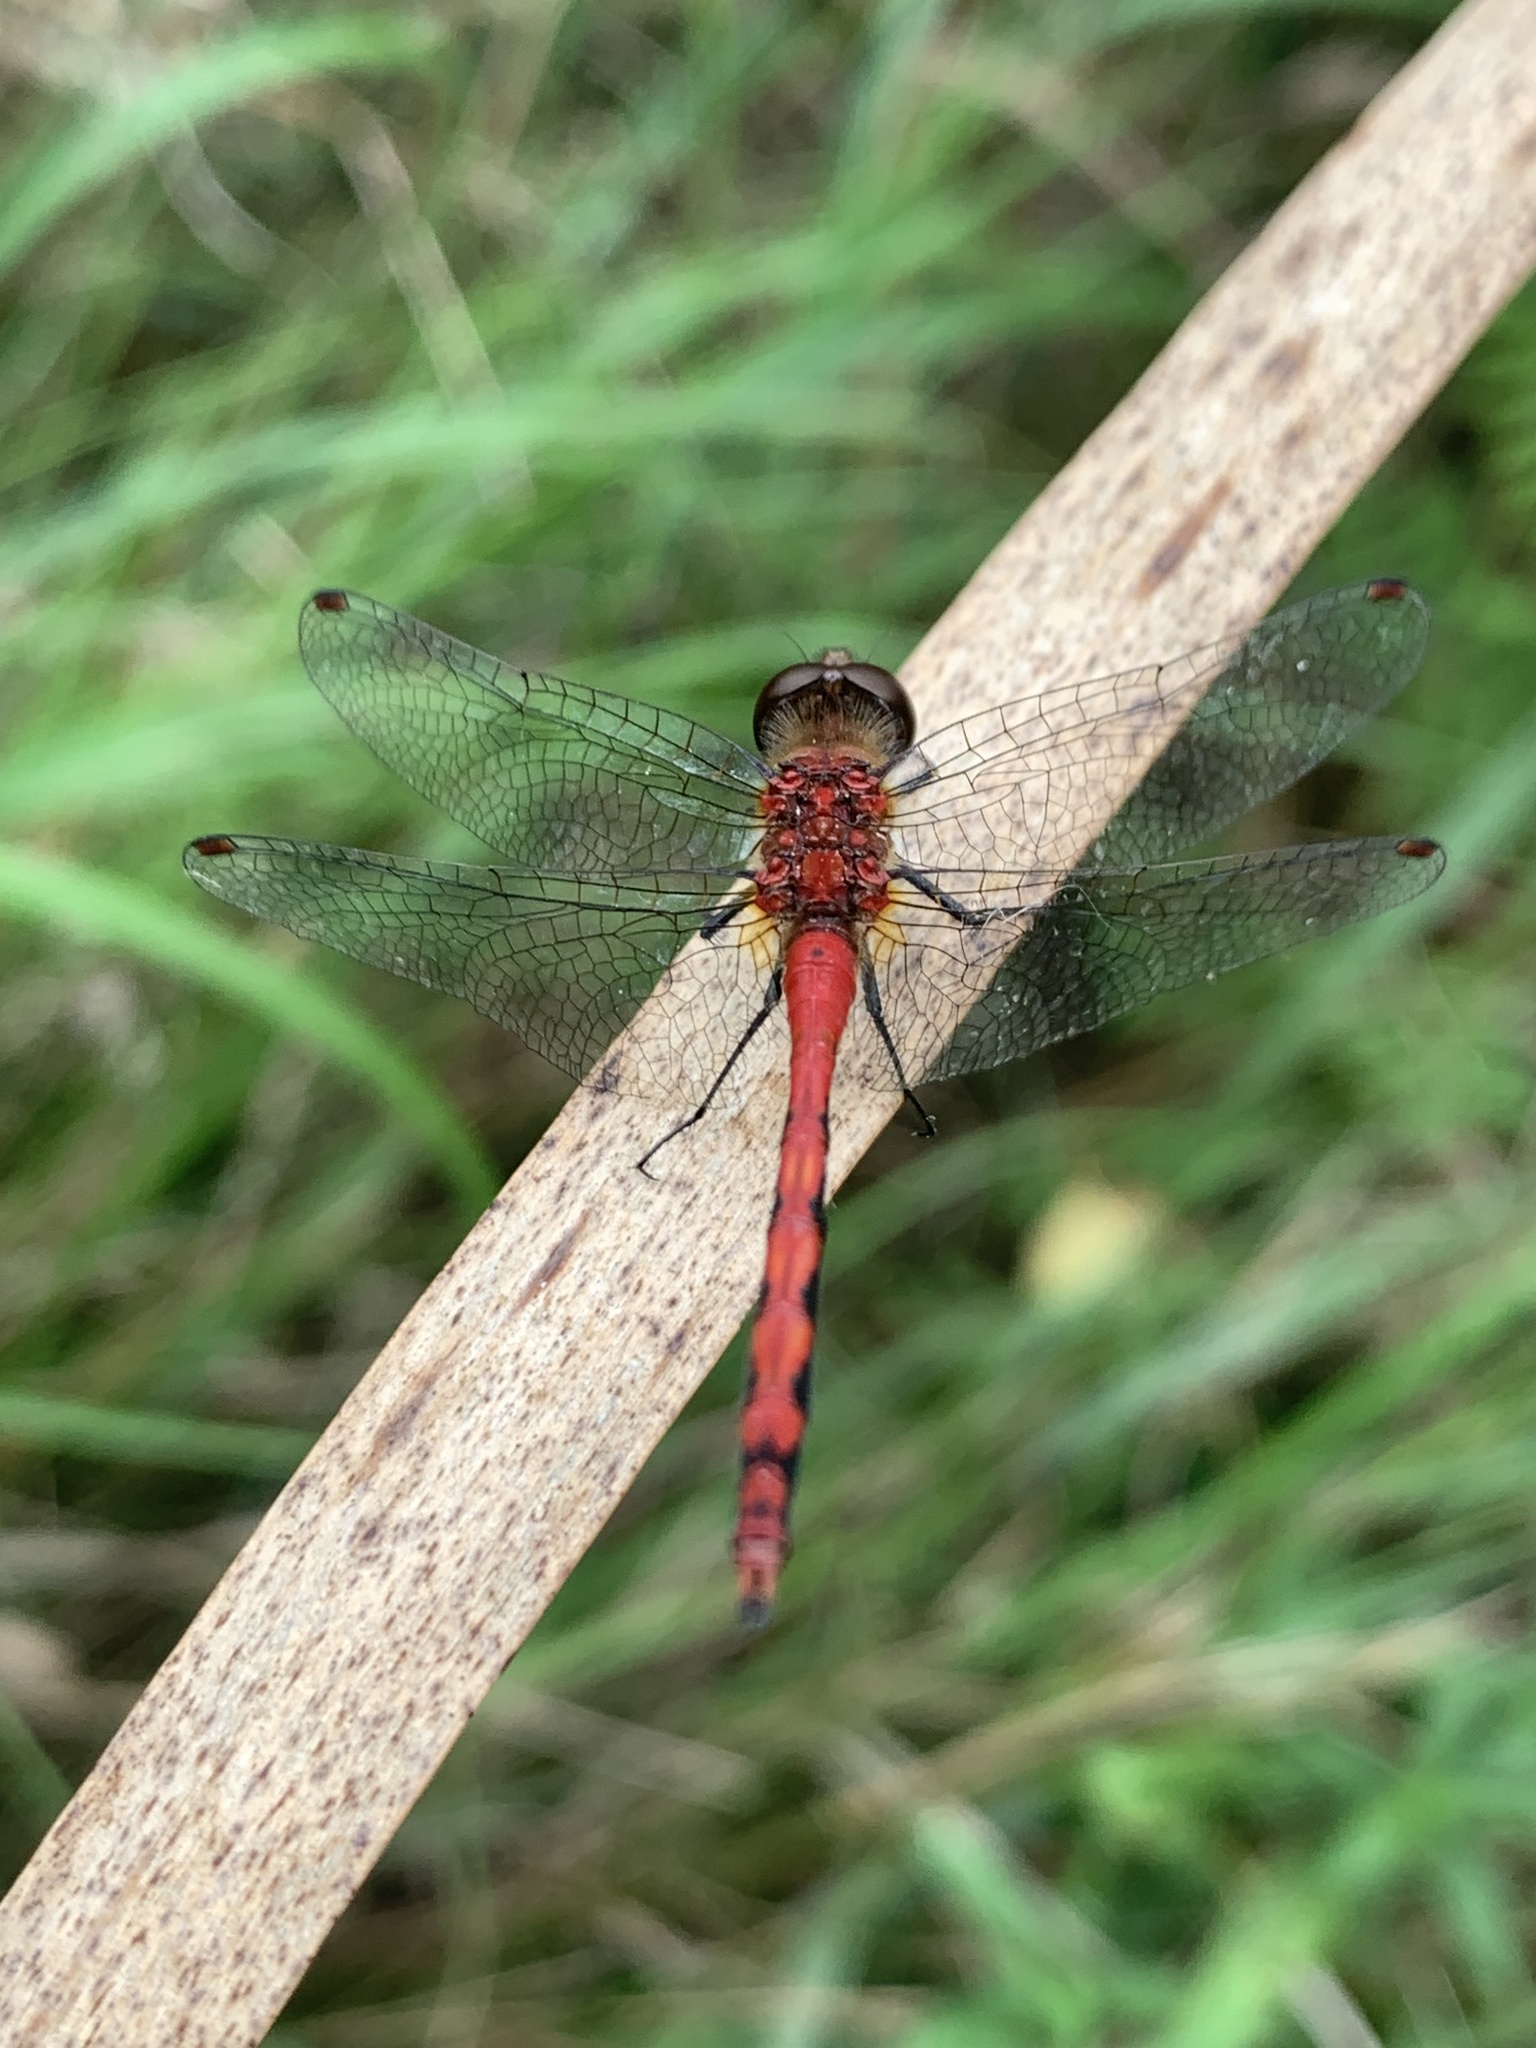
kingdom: Animalia
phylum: Arthropoda
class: Insecta
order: Odonata
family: Libellulidae
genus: Sympetrum
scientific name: Sympetrum obtrusum
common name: White-faced meadowhawk
